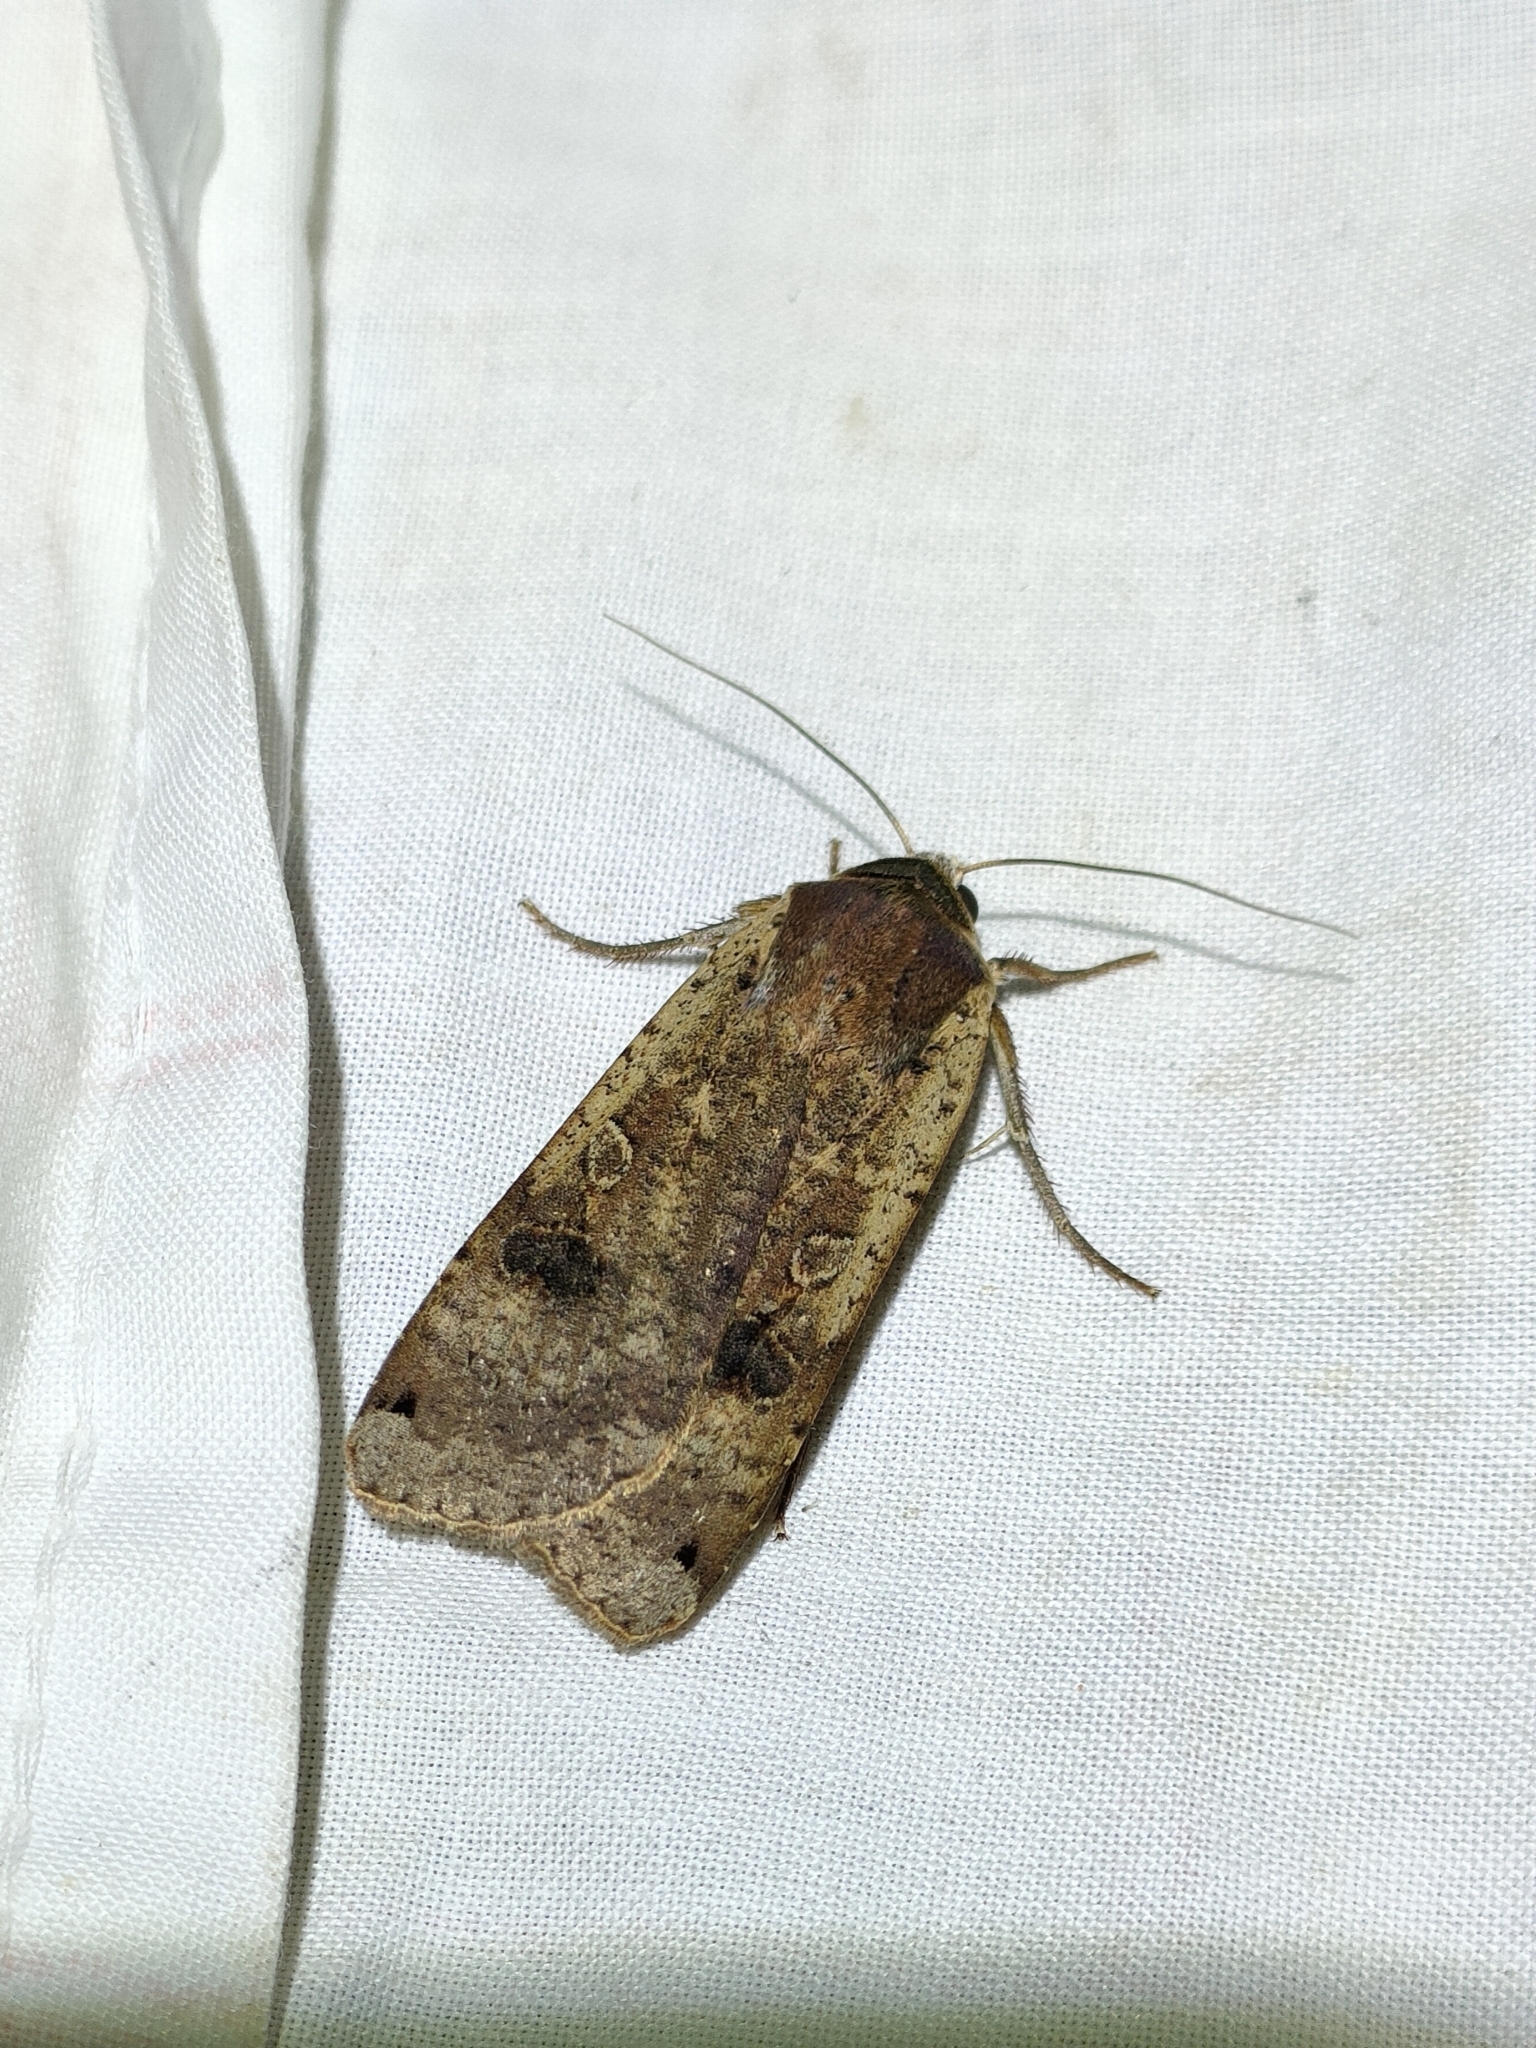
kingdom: Animalia
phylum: Arthropoda
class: Insecta
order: Lepidoptera
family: Noctuidae
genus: Noctua
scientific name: Noctua pronuba
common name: Large yellow underwing
